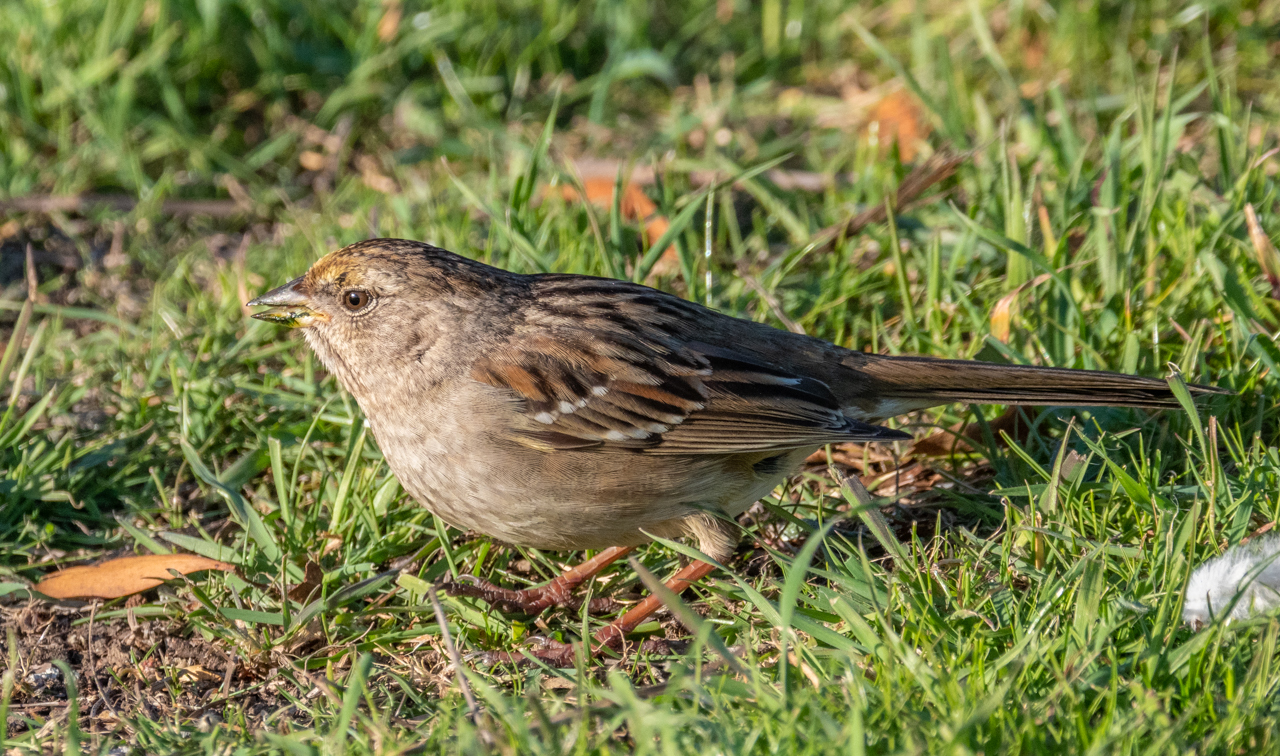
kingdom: Animalia
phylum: Chordata
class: Aves
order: Passeriformes
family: Passerellidae
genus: Zonotrichia
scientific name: Zonotrichia atricapilla
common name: Golden-crowned sparrow
